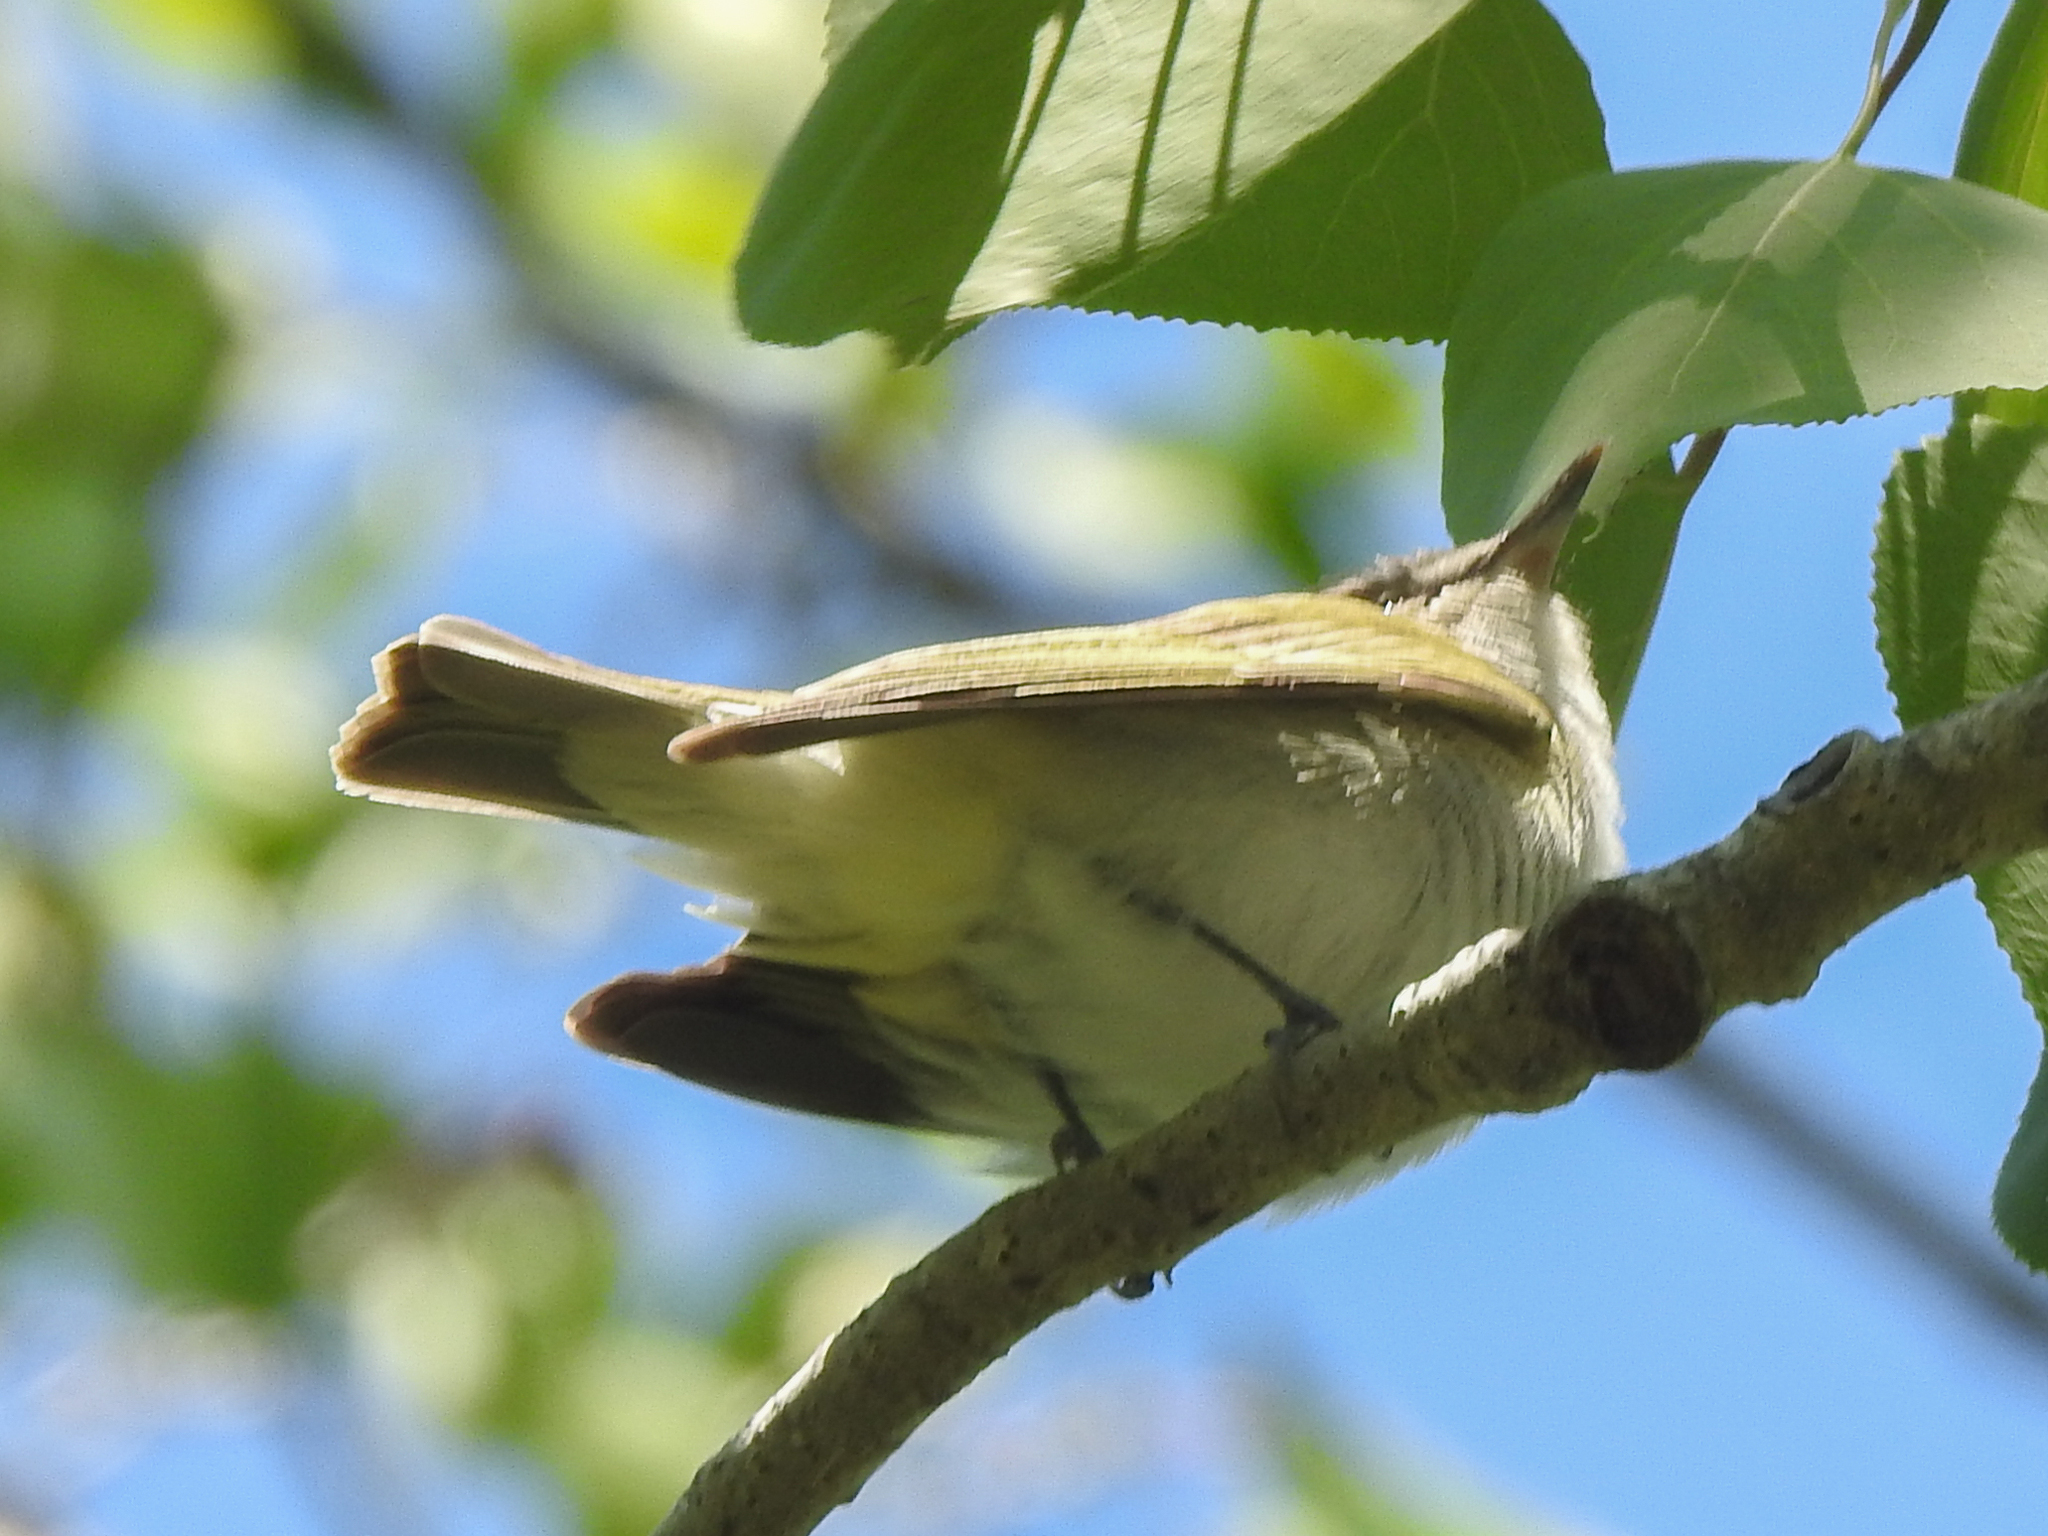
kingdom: Animalia
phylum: Chordata
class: Aves
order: Passeriformes
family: Vireonidae
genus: Vireo
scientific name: Vireo olivaceus
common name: Red-eyed vireo
